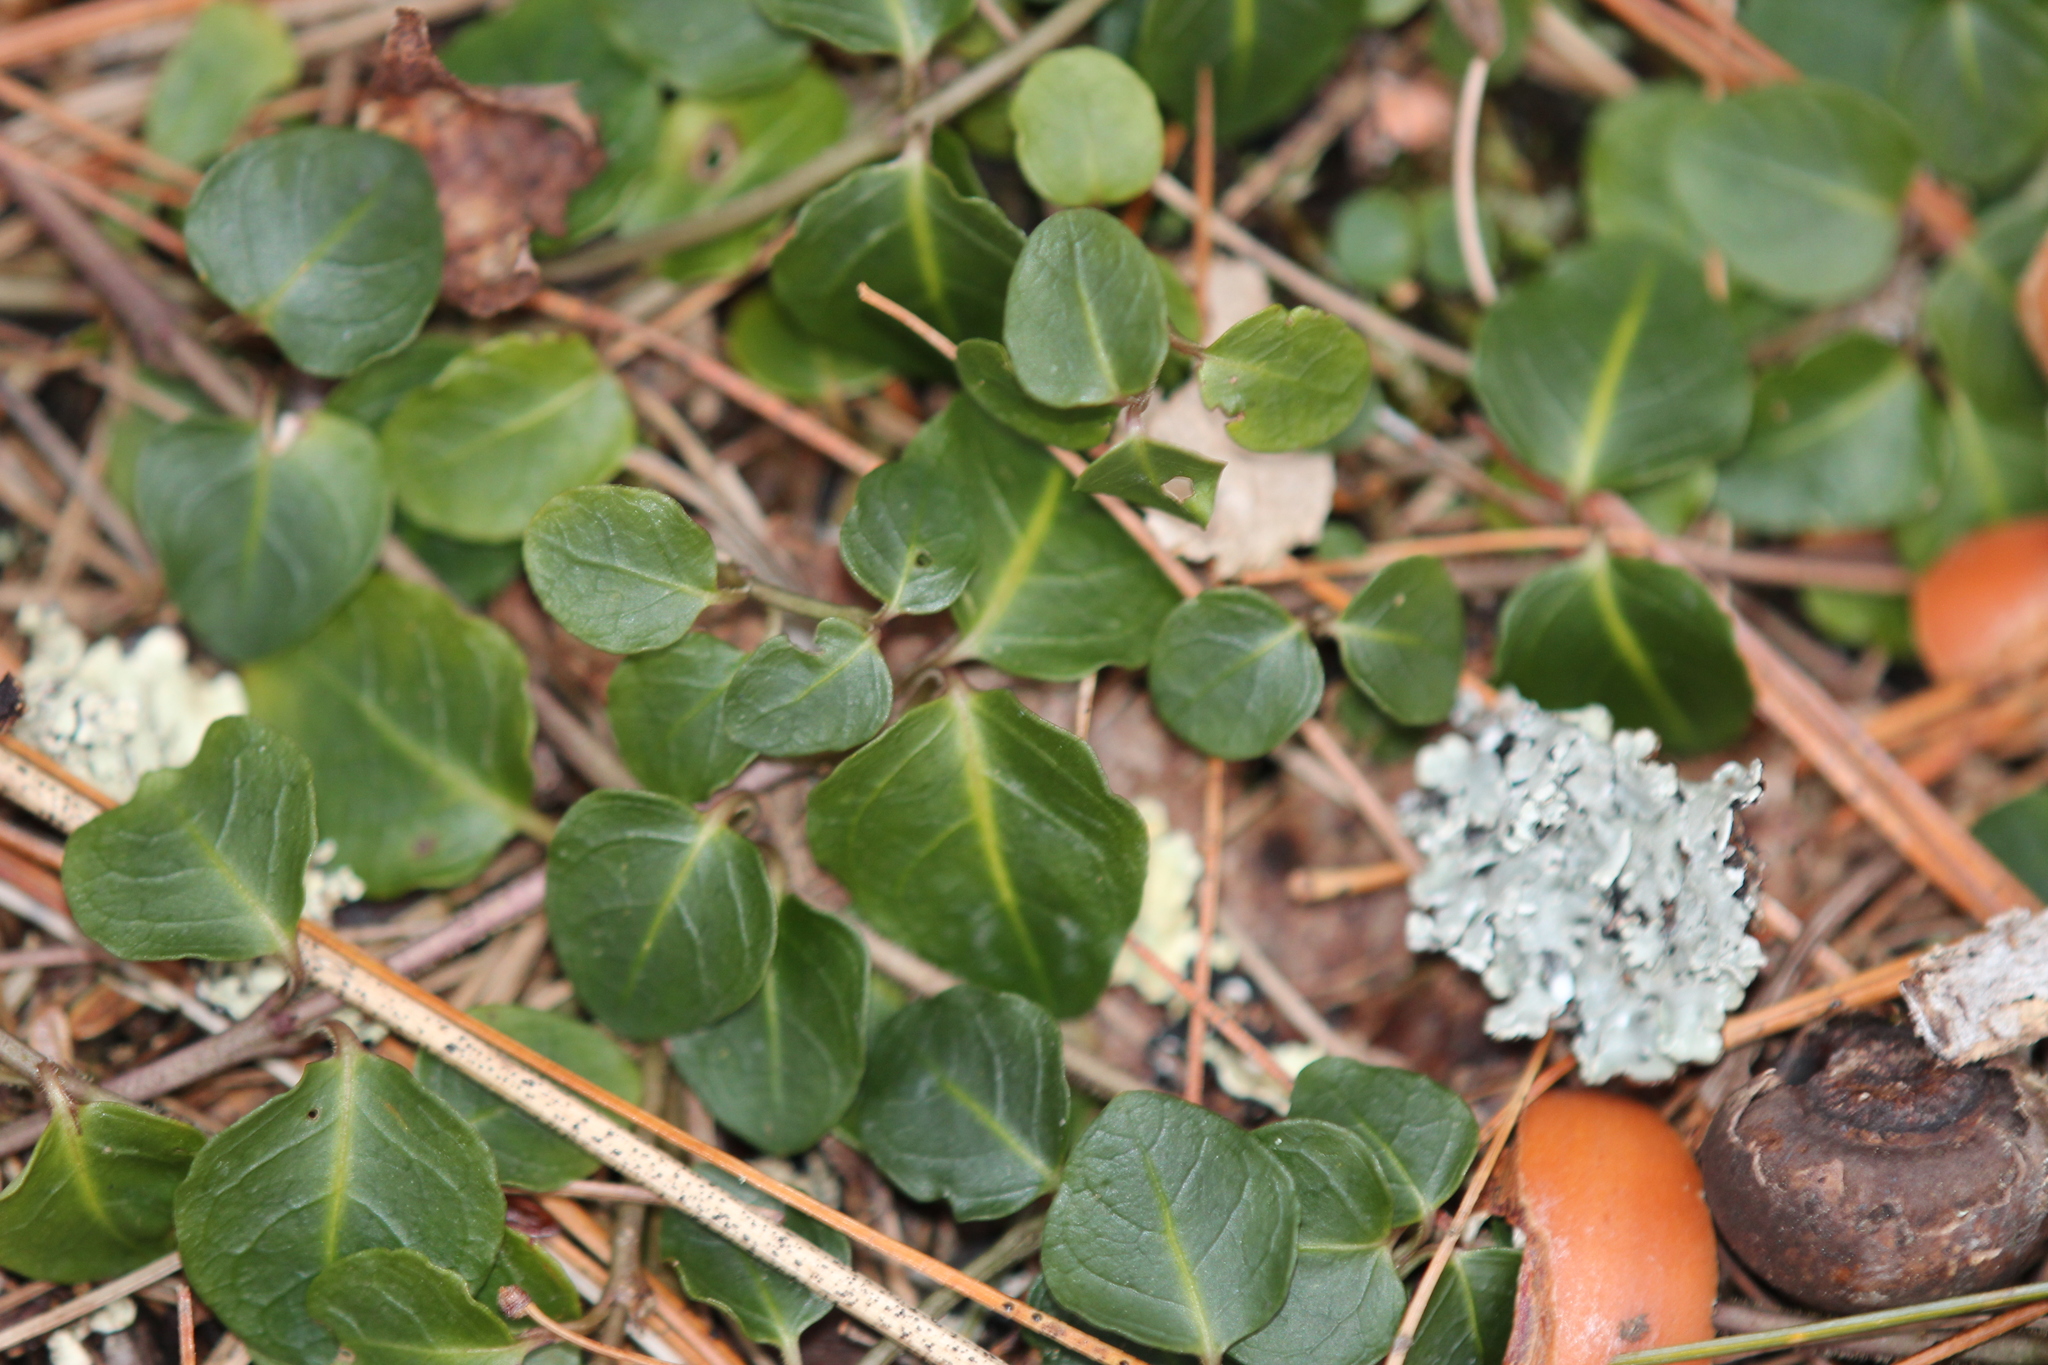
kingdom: Plantae
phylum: Tracheophyta
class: Magnoliopsida
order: Gentianales
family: Rubiaceae
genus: Mitchella
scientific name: Mitchella repens
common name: Partridge-berry
